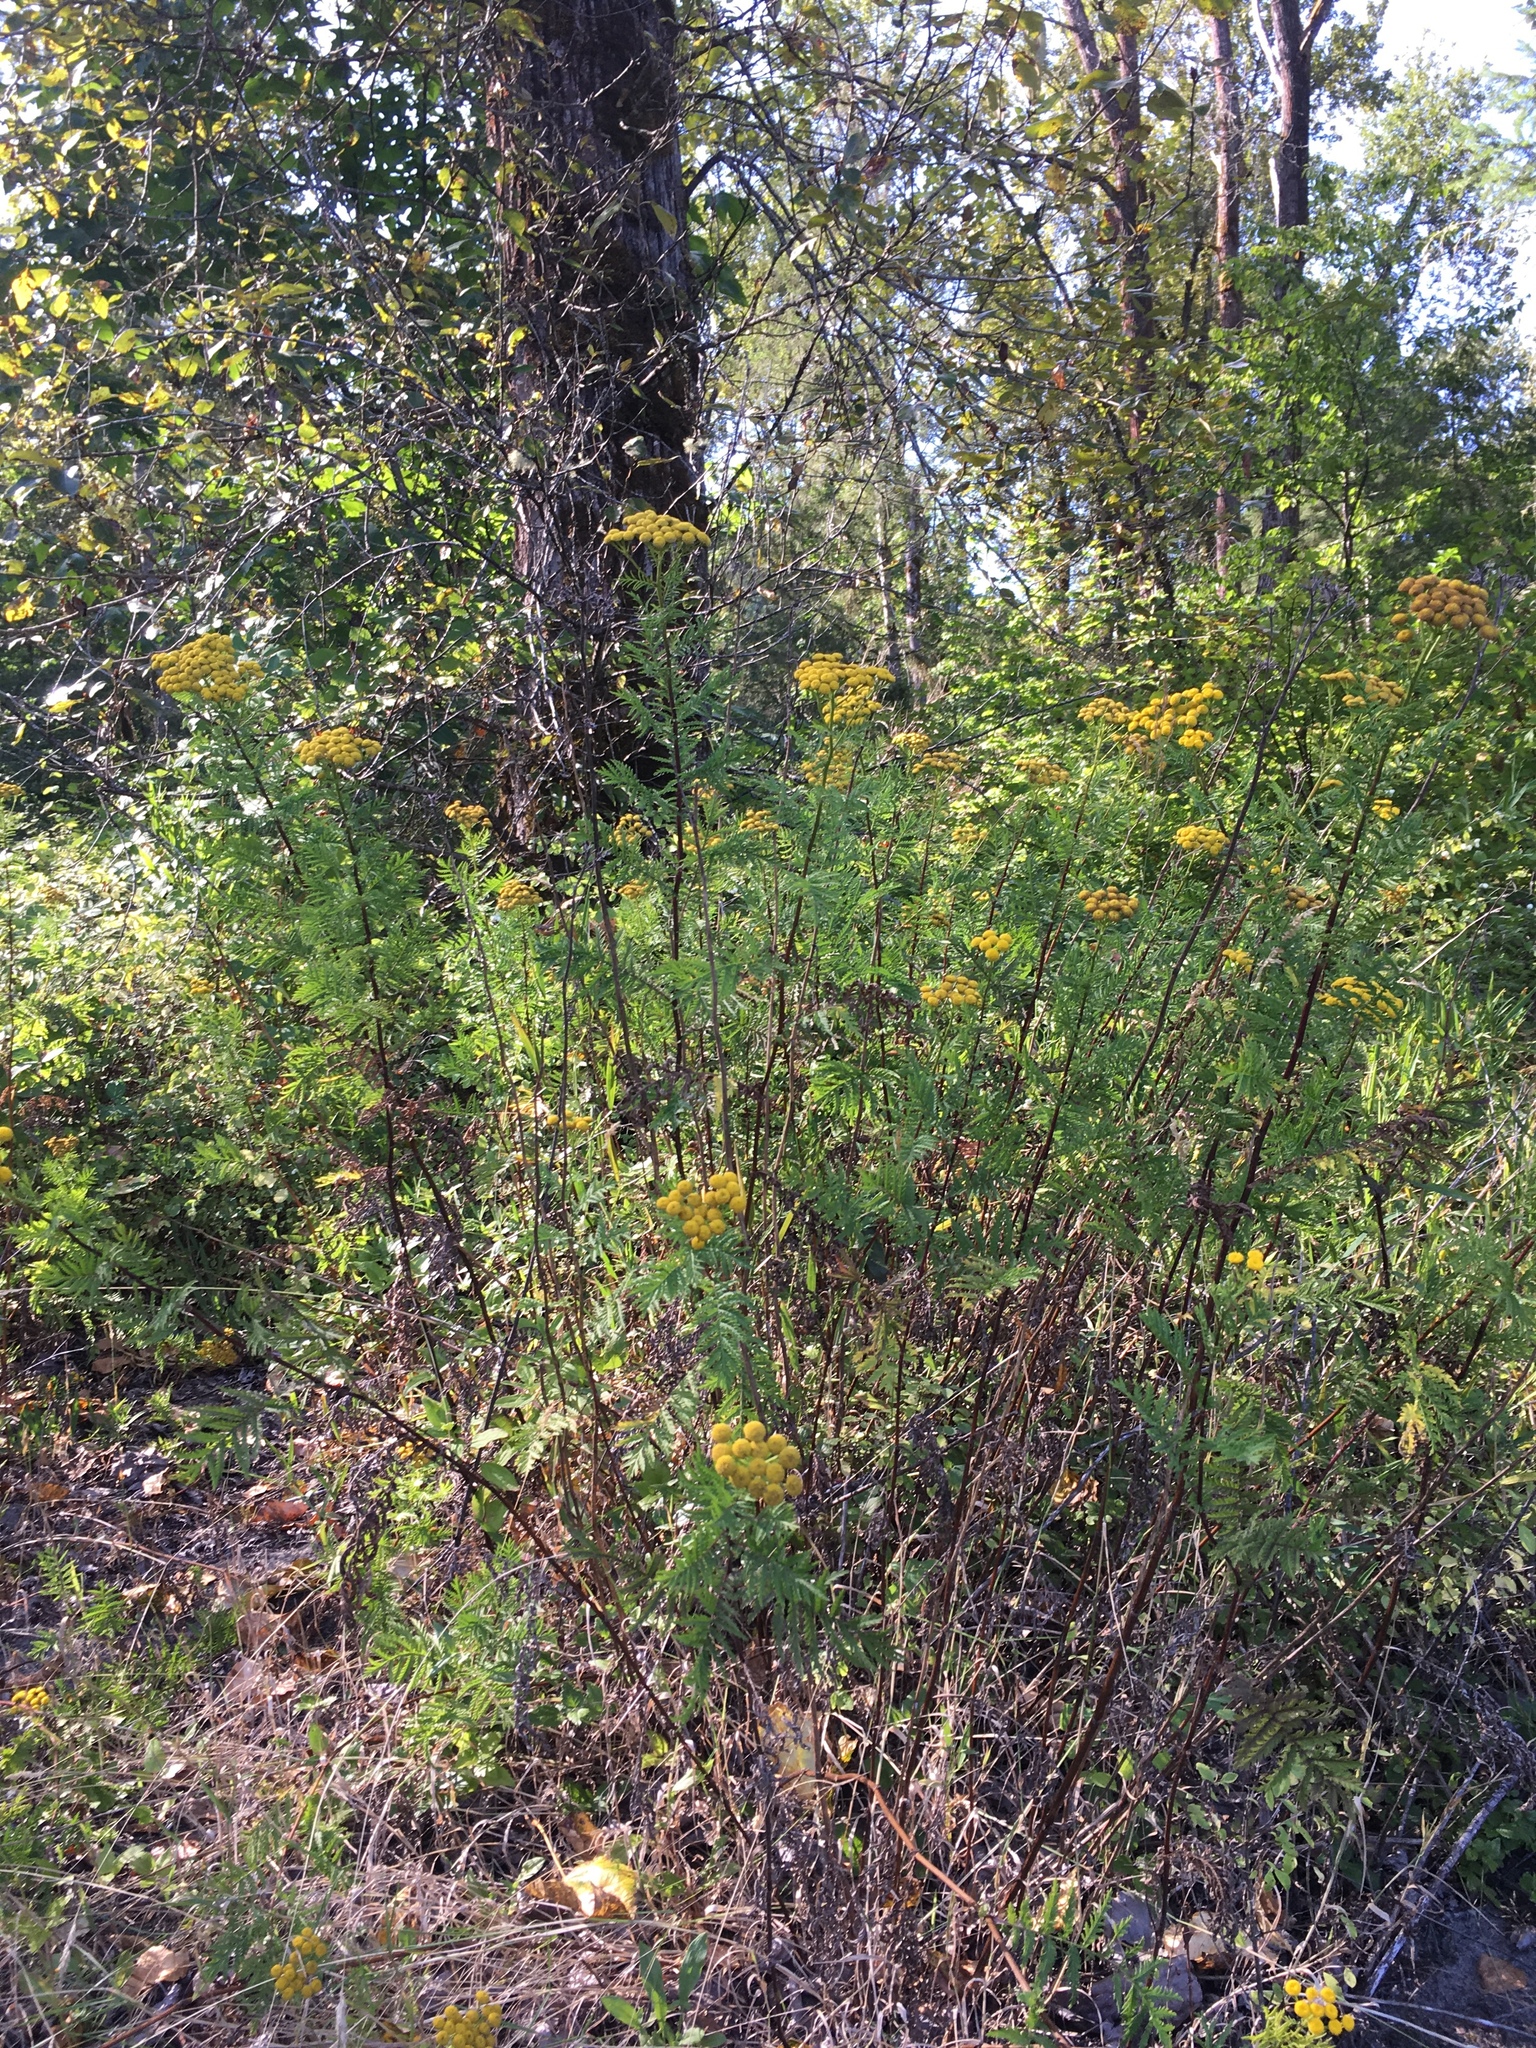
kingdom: Plantae
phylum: Tracheophyta
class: Magnoliopsida
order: Asterales
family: Asteraceae
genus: Tanacetum
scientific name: Tanacetum vulgare
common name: Common tansy
